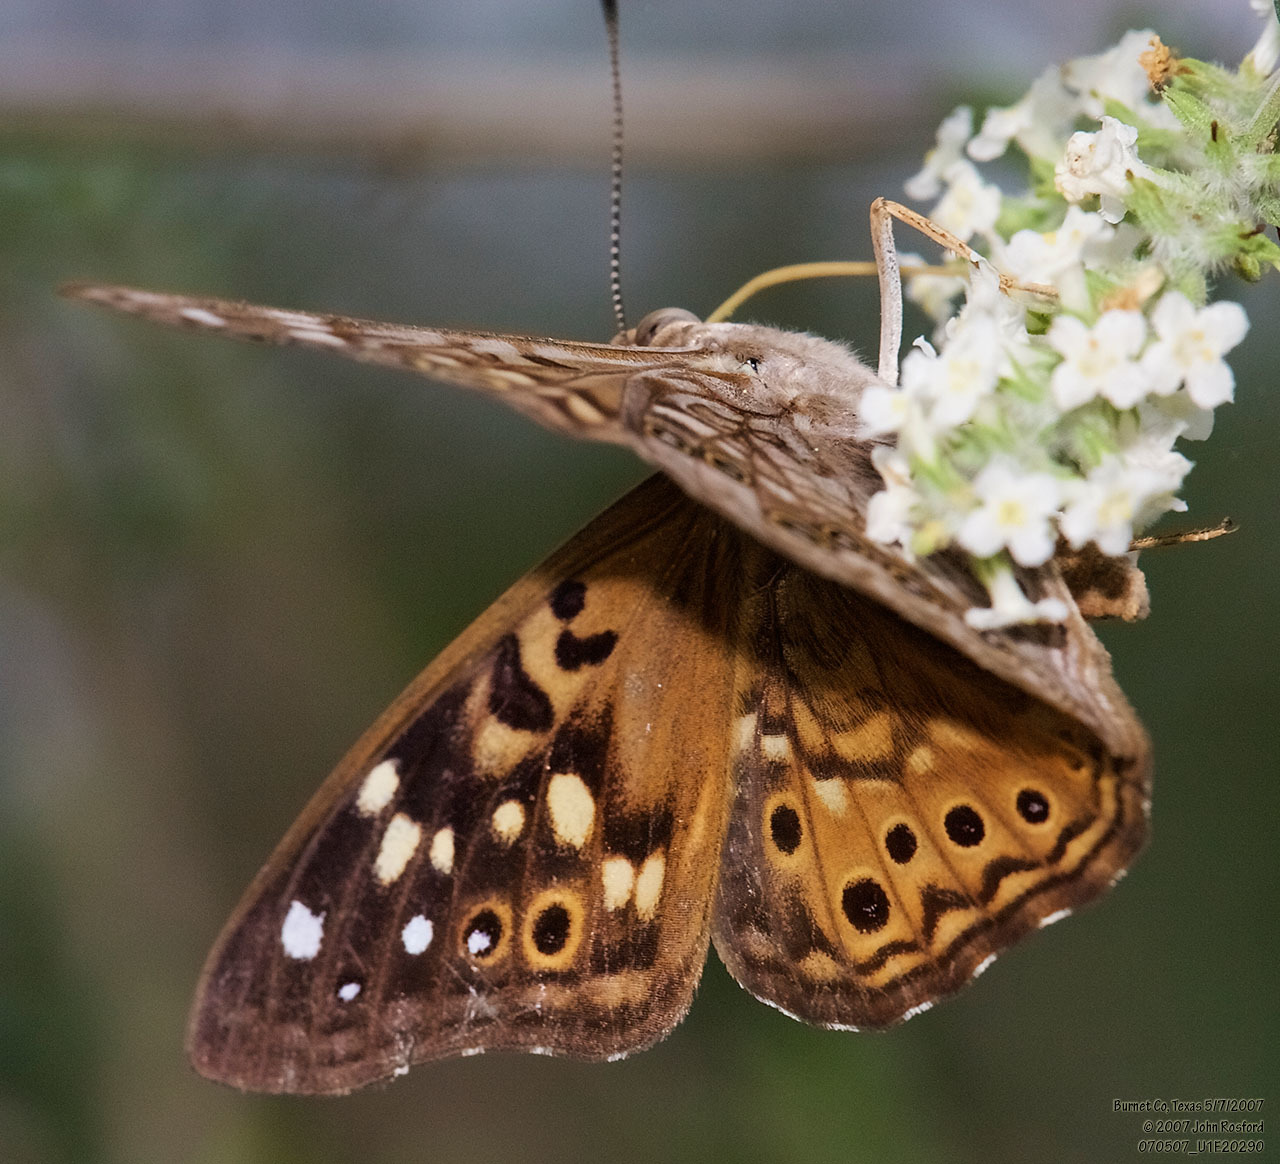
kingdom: Animalia
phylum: Arthropoda
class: Insecta
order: Lepidoptera
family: Nymphalidae
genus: Asterocampa
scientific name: Asterocampa celtis
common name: Hackberry emperor
